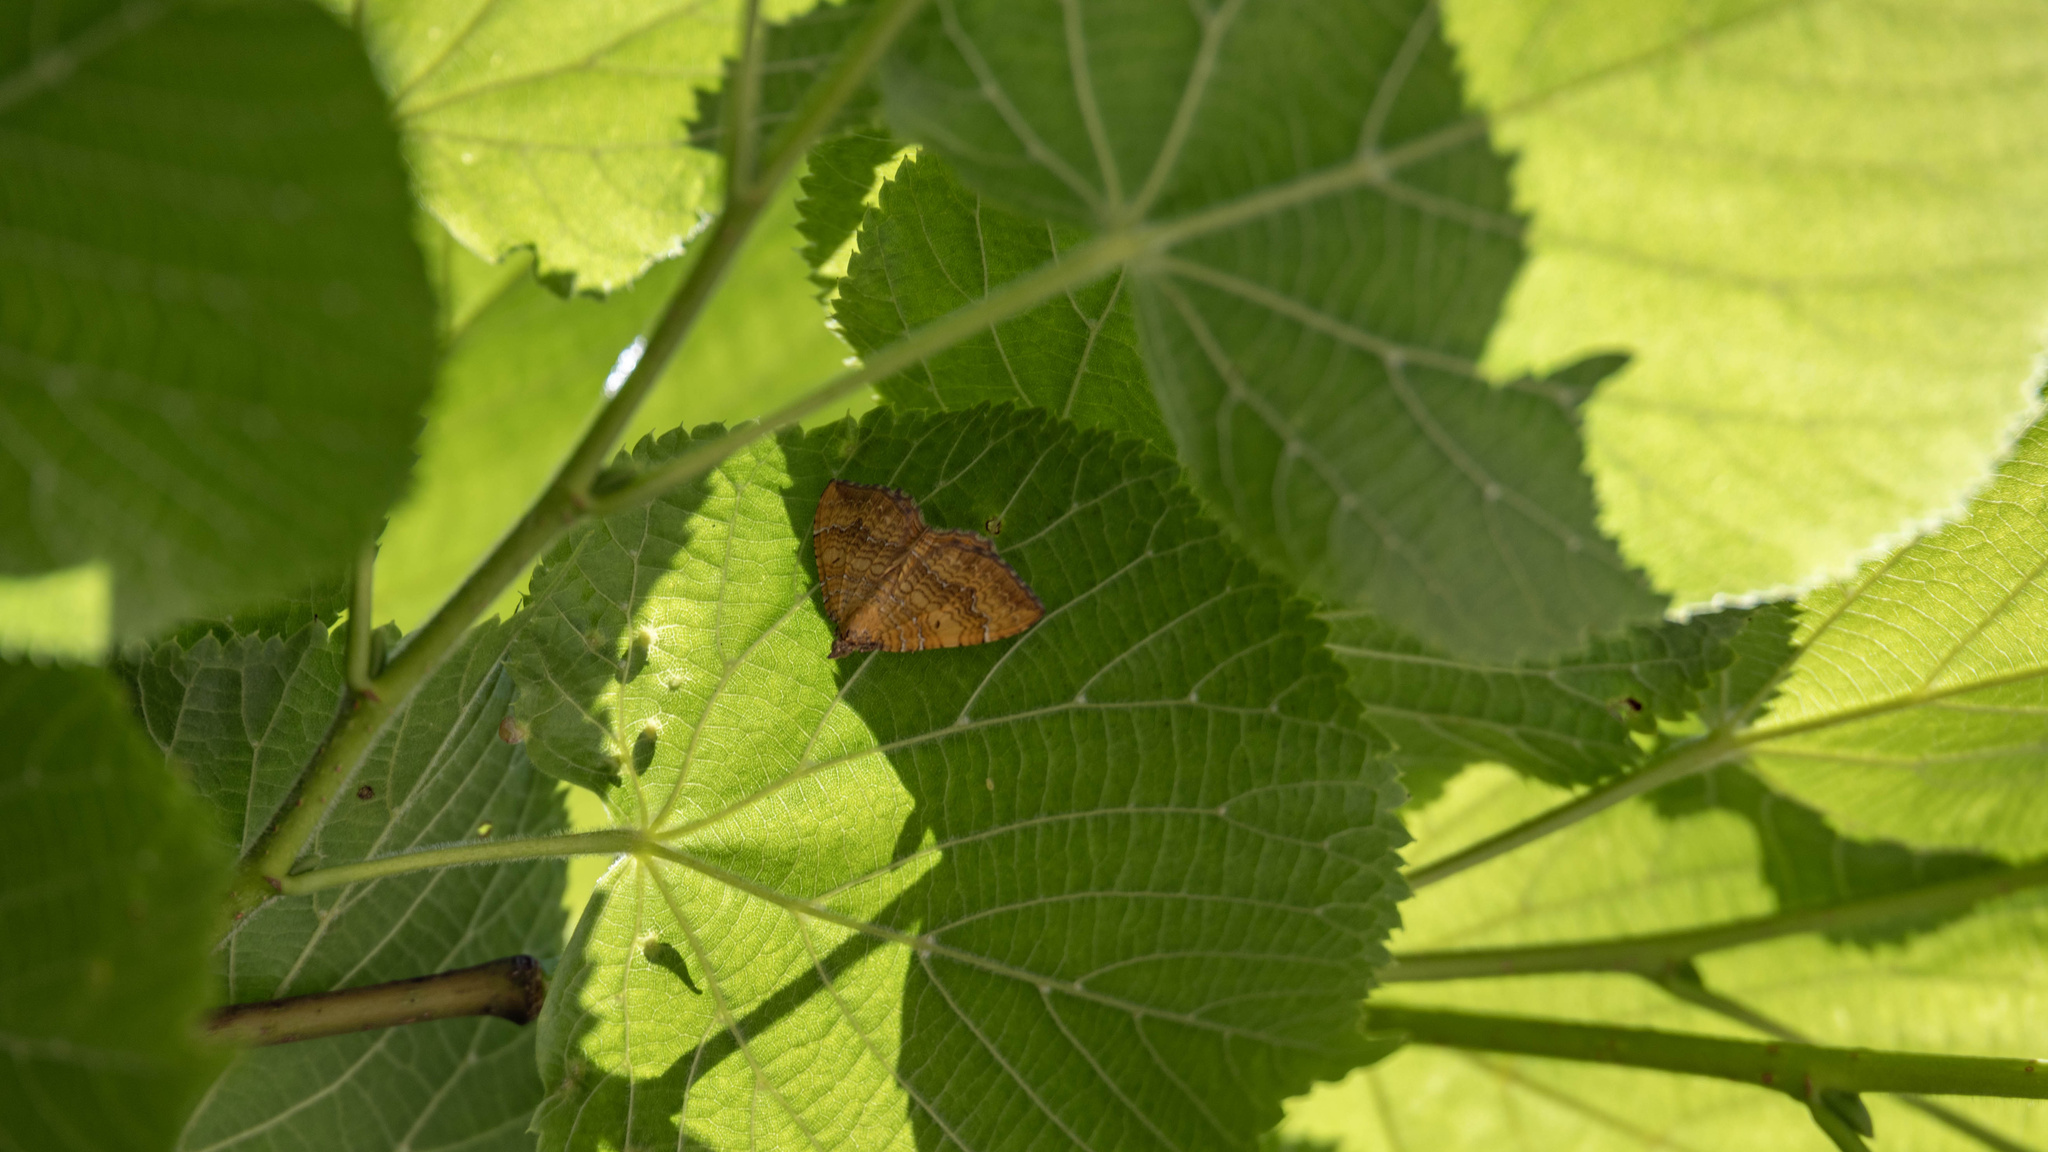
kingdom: Animalia
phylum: Arthropoda
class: Insecta
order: Lepidoptera
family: Geometridae
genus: Camptogramma
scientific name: Camptogramma bilineata
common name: Yellow shell
